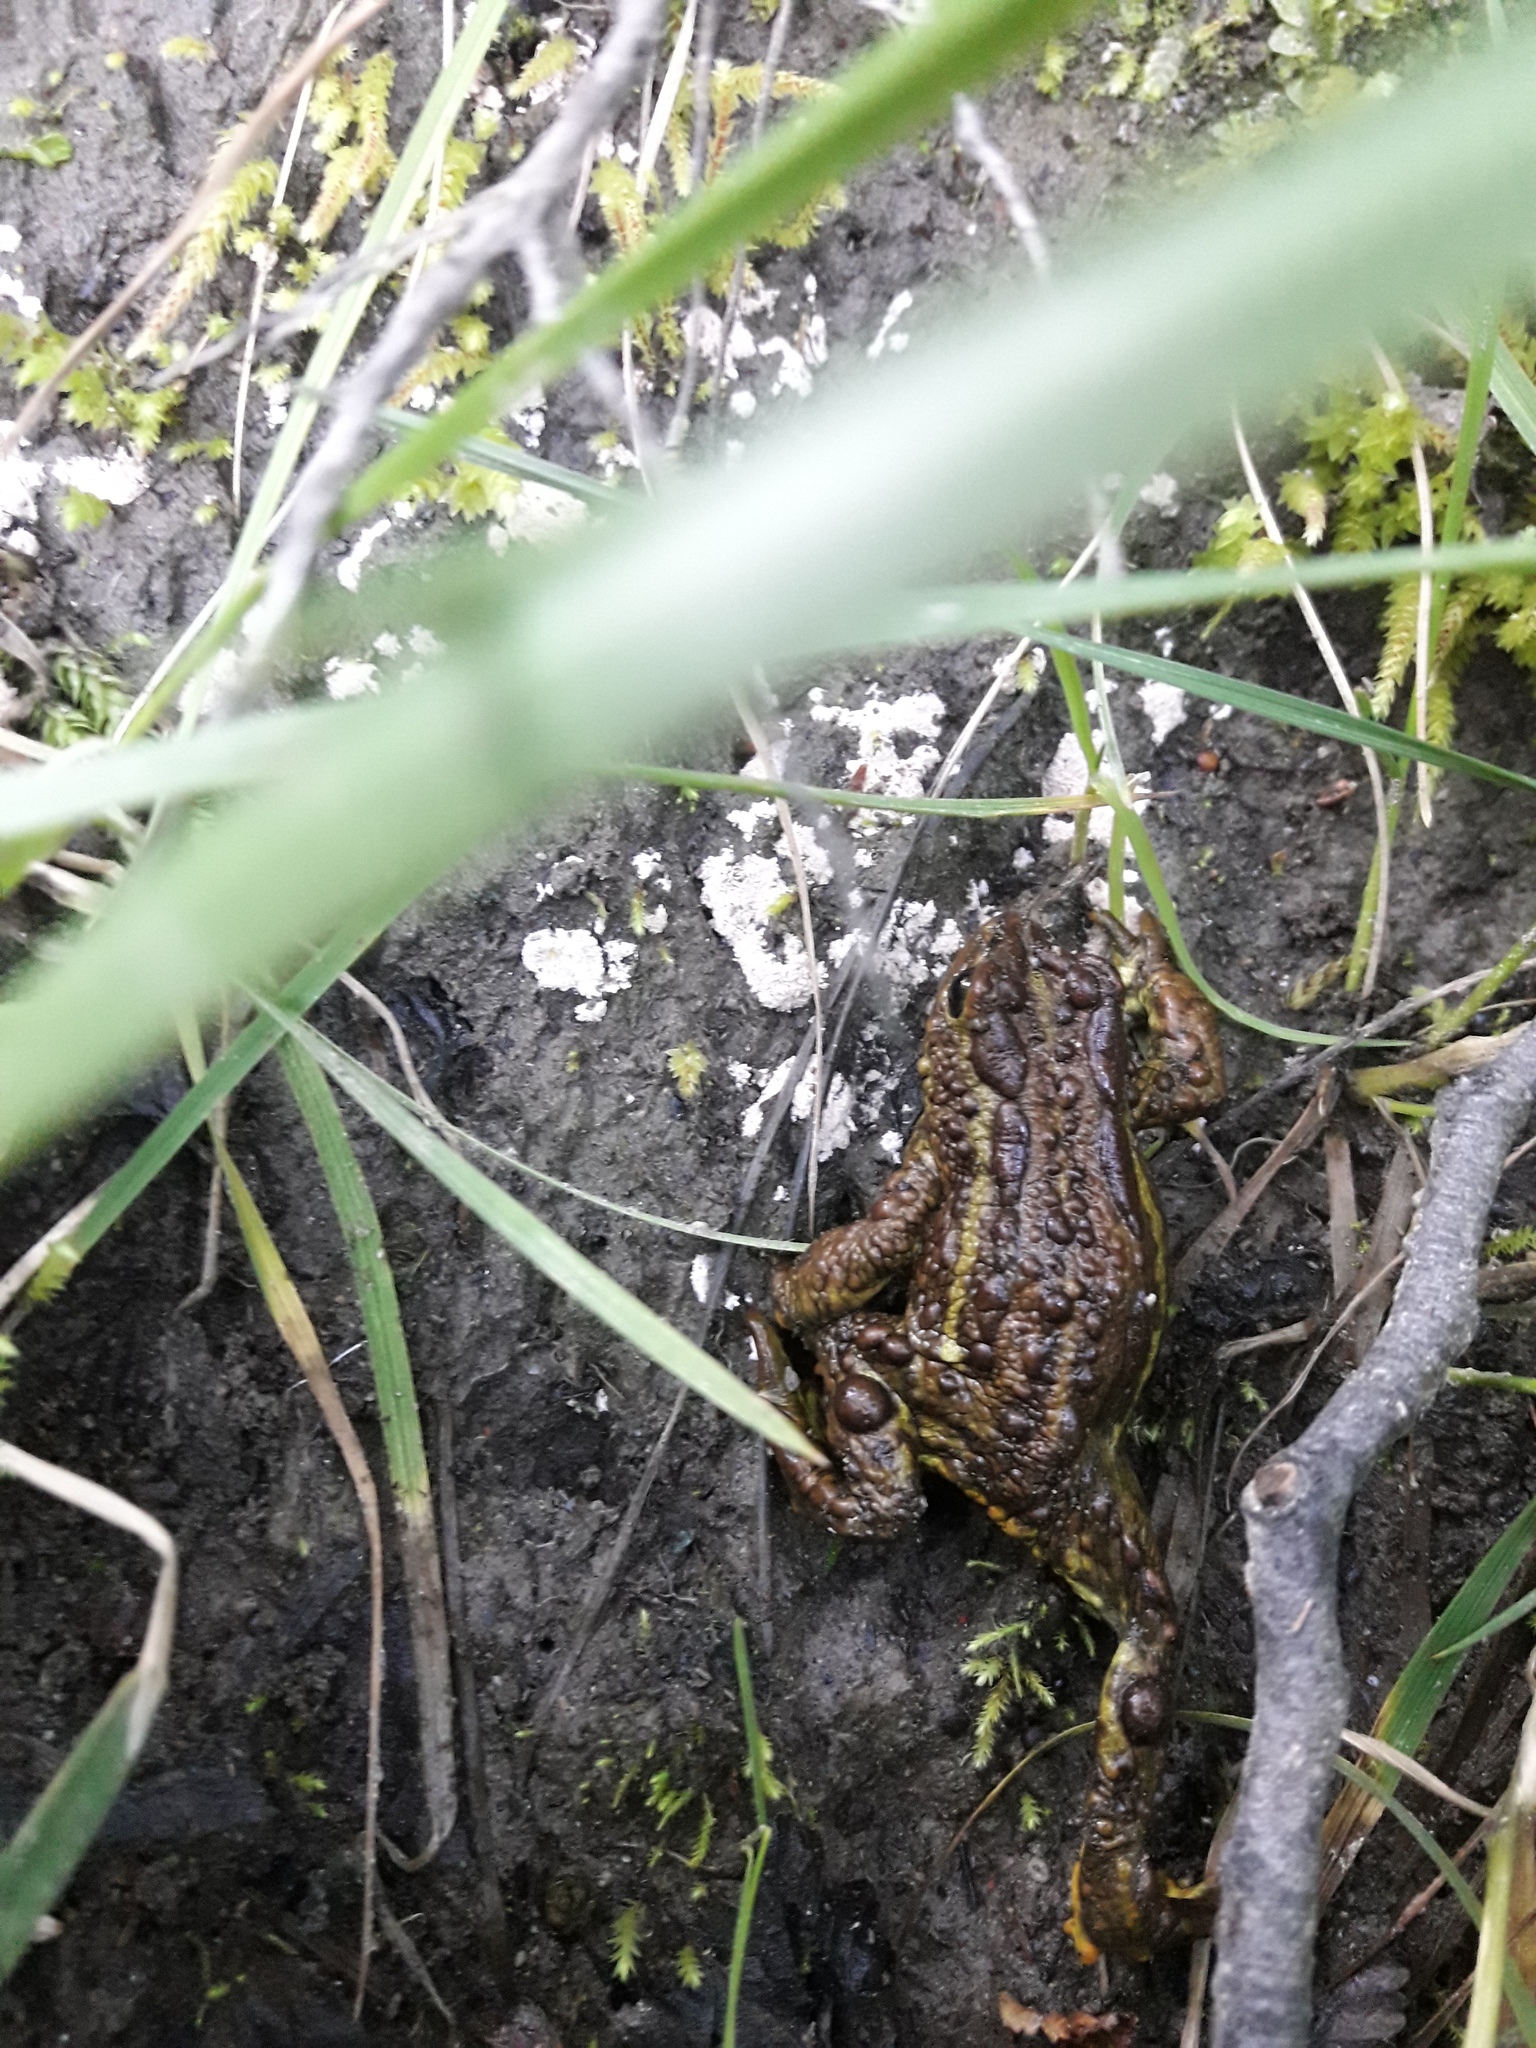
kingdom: Animalia
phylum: Chordata
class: Amphibia
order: Anura
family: Bufonidae
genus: Nannophryne
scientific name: Nannophryne variegata
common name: Eden harbour toad
